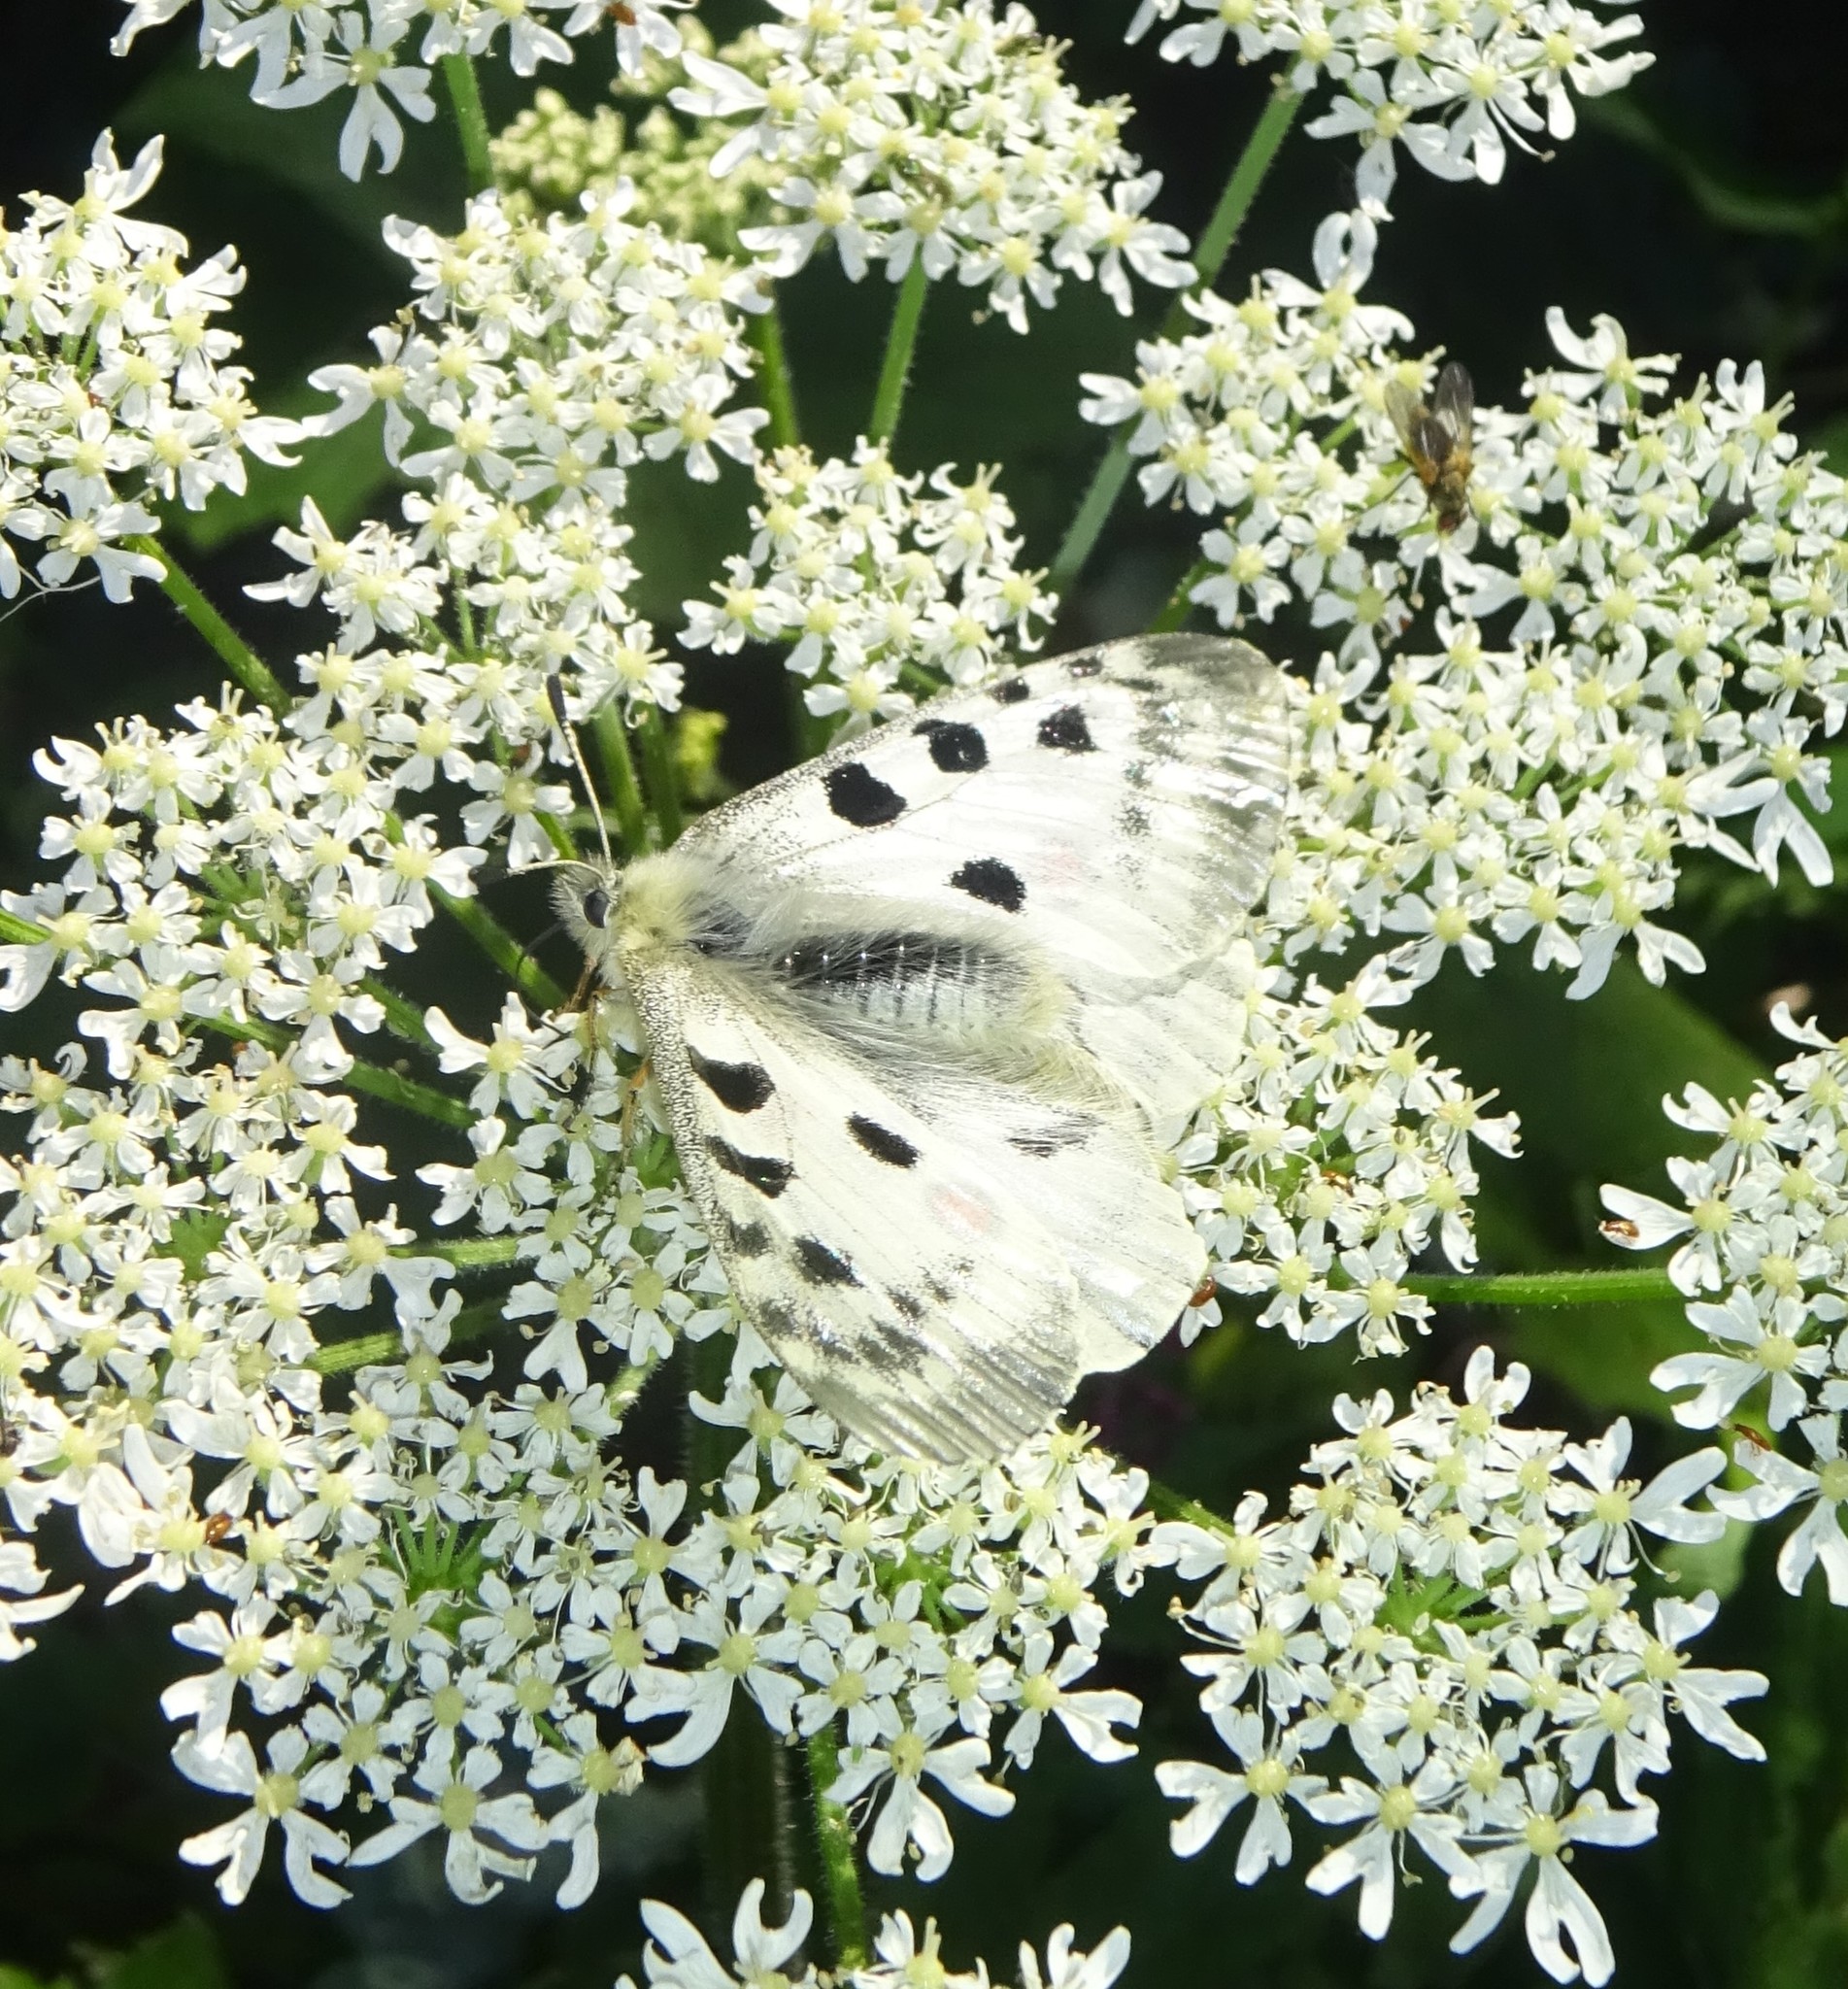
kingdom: Animalia
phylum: Arthropoda
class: Insecta
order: Lepidoptera
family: Papilionidae
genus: Parnassius
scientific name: Parnassius apollo
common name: Apollo
